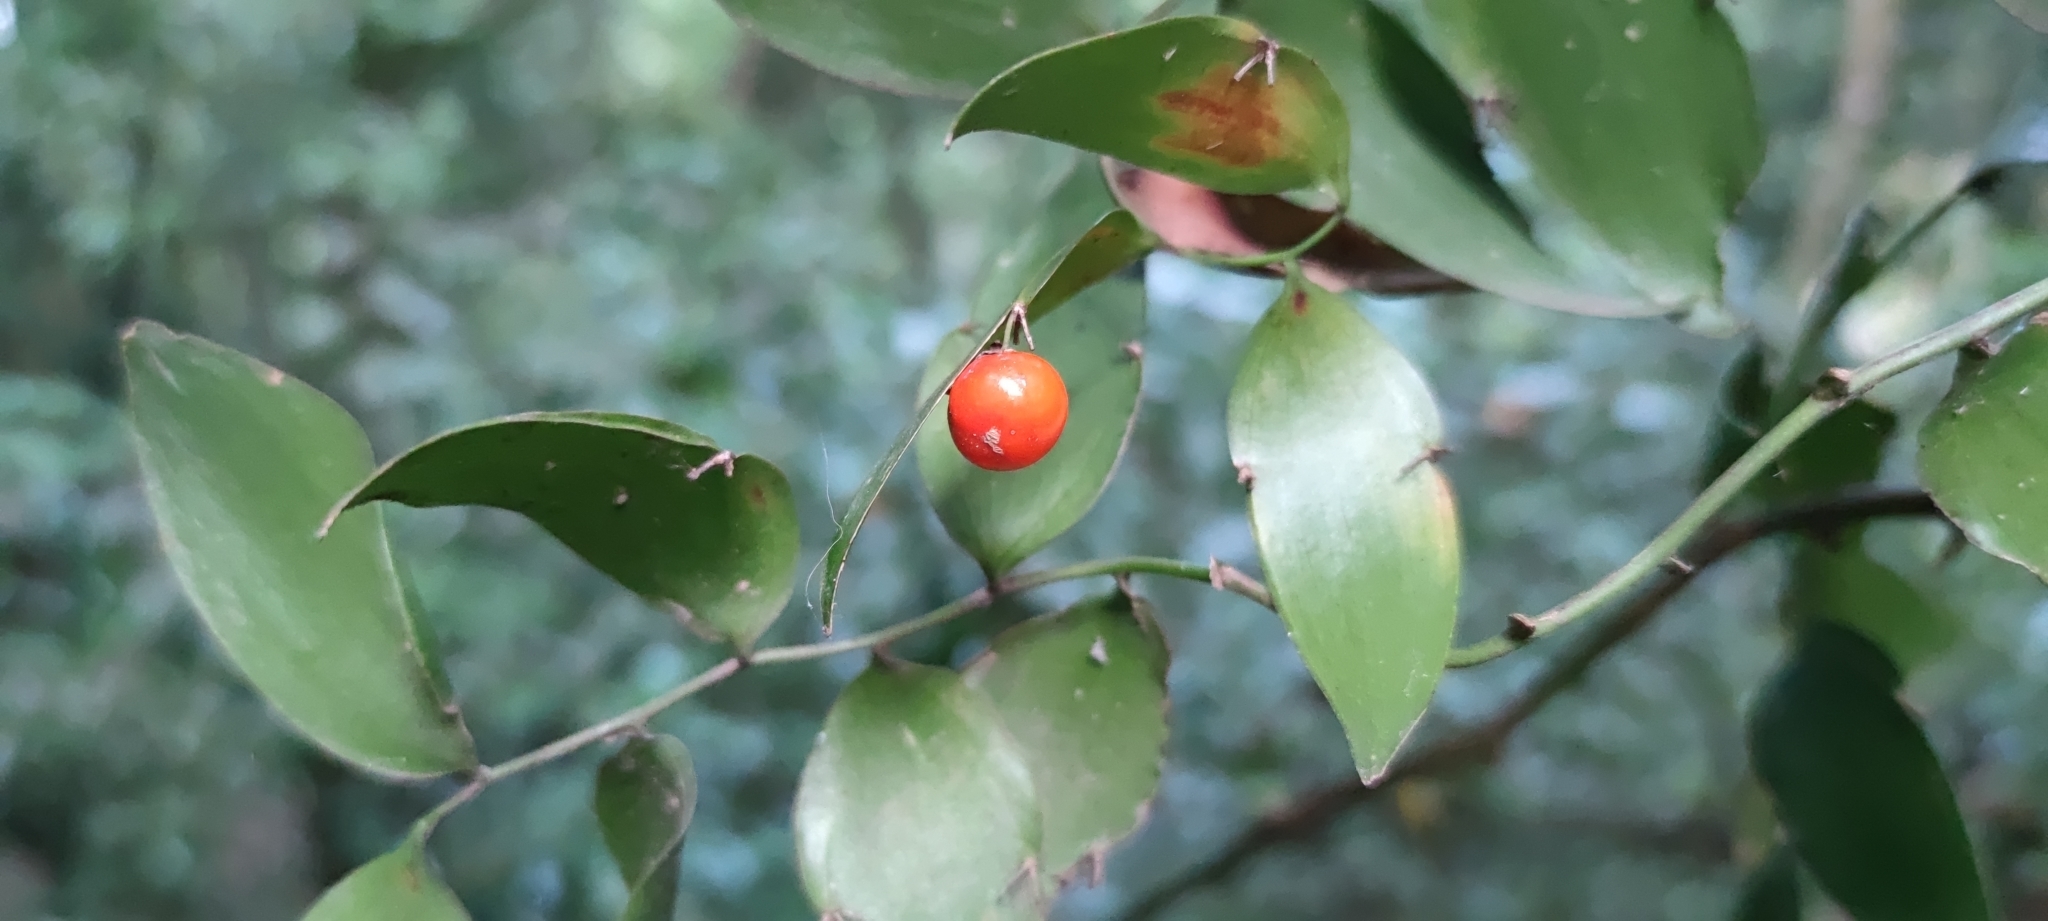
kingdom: Plantae
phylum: Tracheophyta
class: Liliopsida
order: Asparagales
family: Asparagaceae
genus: Semele
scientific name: Semele androgyna
